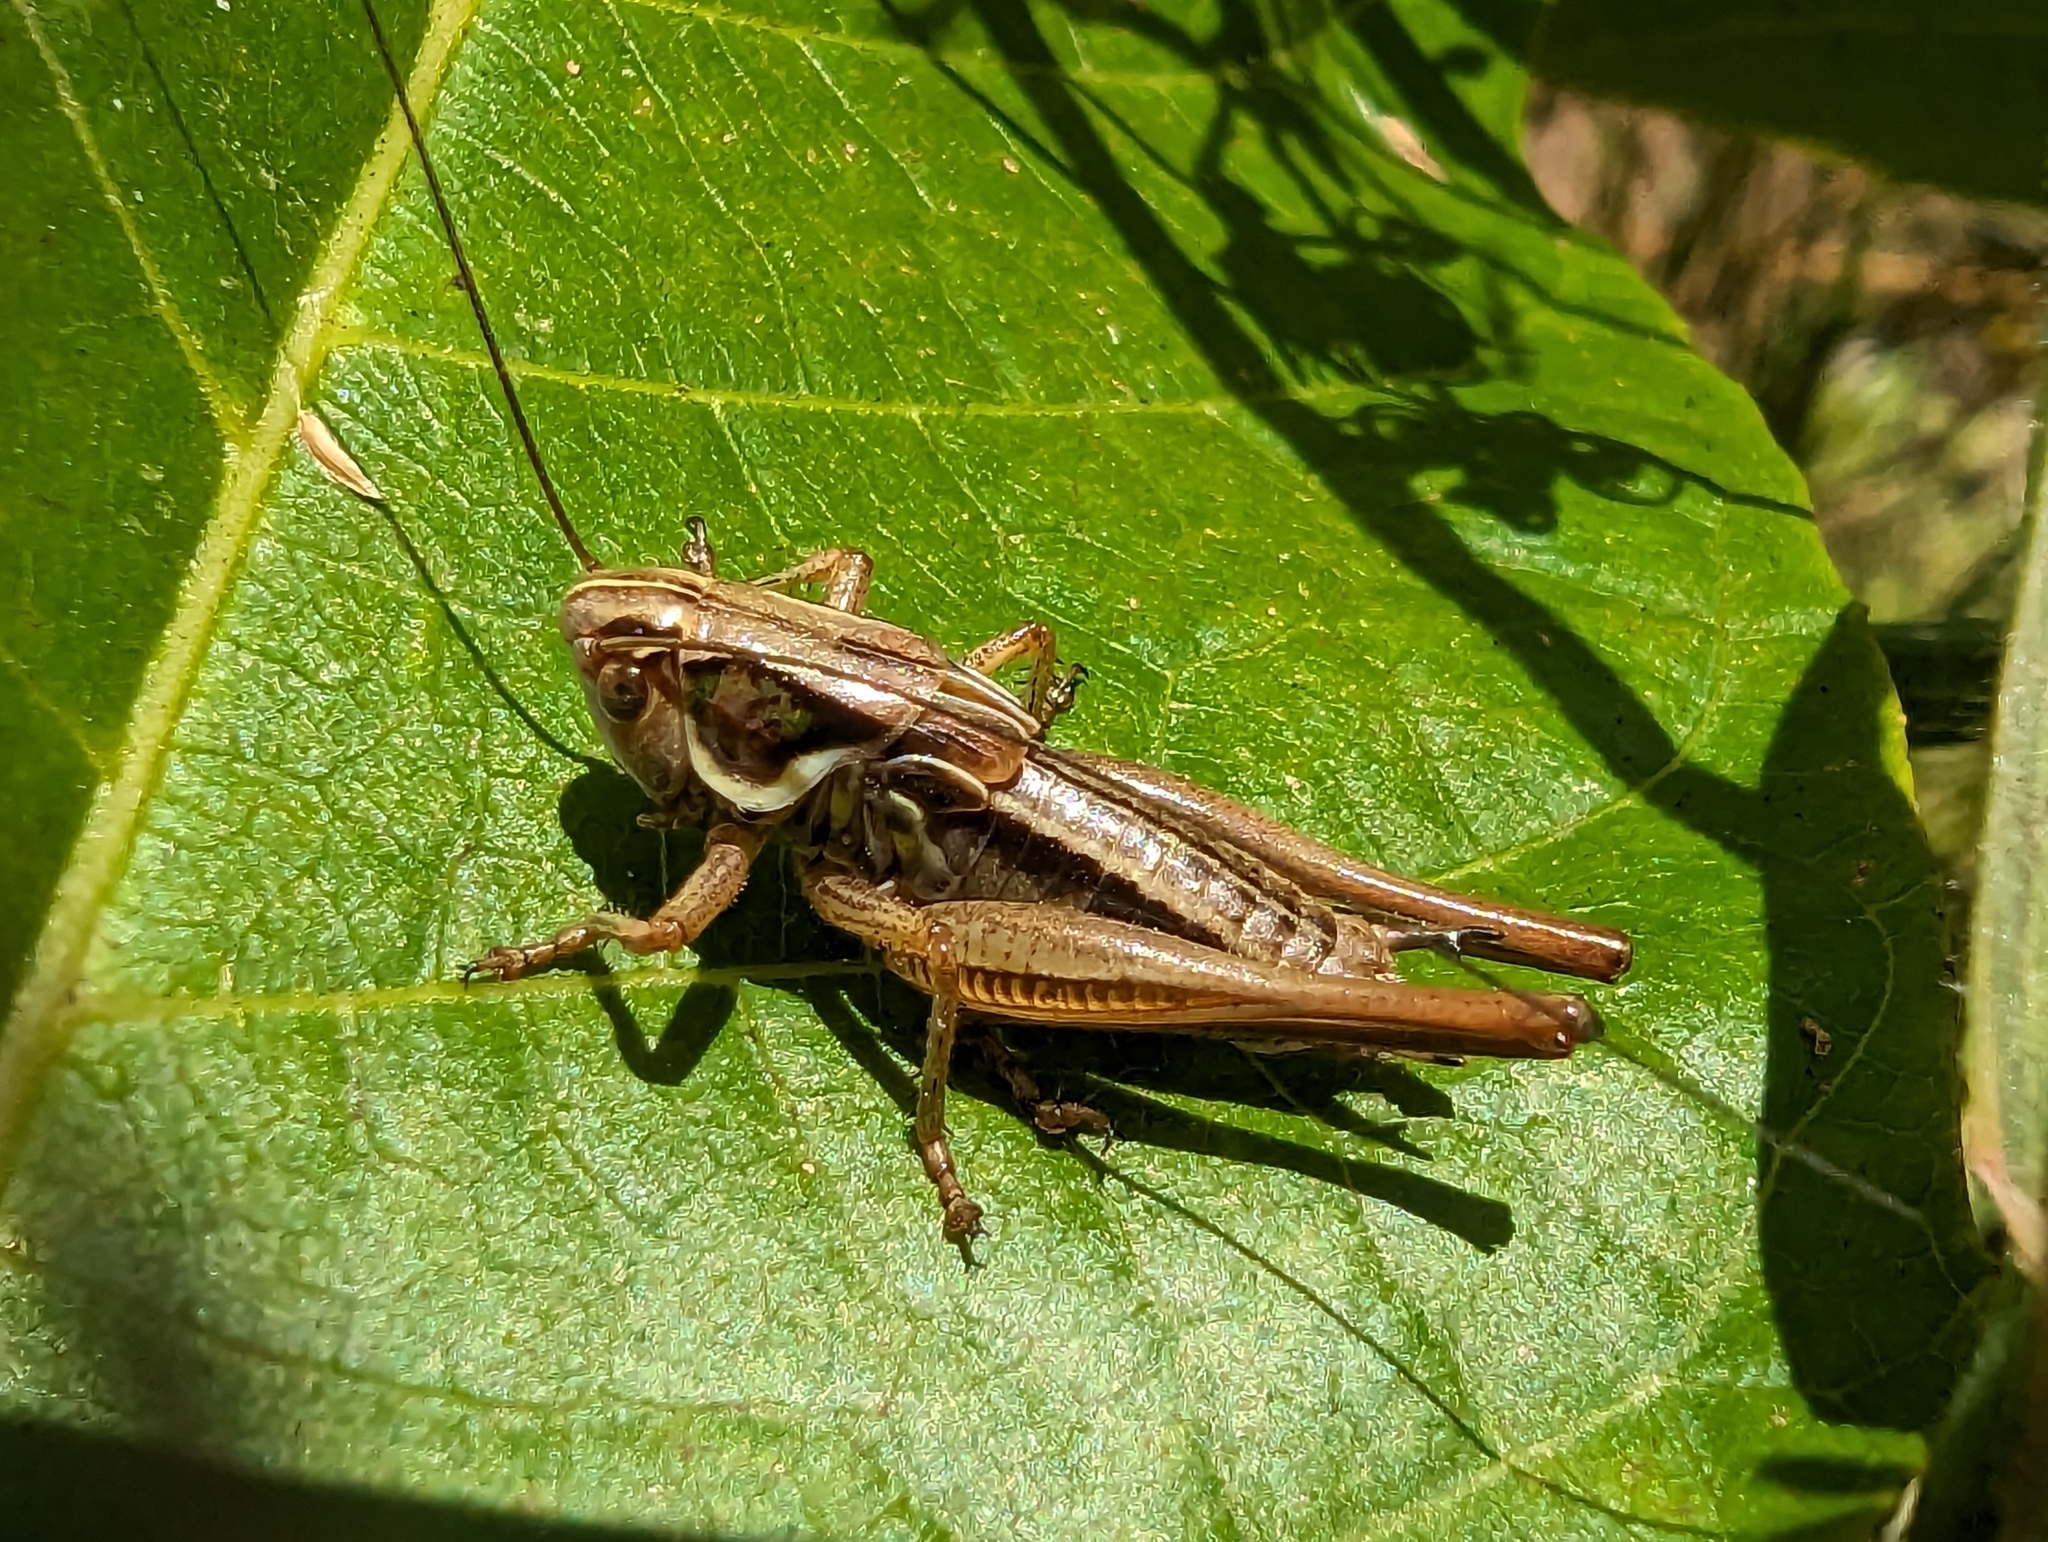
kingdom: Animalia
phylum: Arthropoda
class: Insecta
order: Orthoptera
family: Tettigoniidae
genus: Roeseliana
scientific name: Roeseliana roeselii
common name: Roesel's bush cricket
